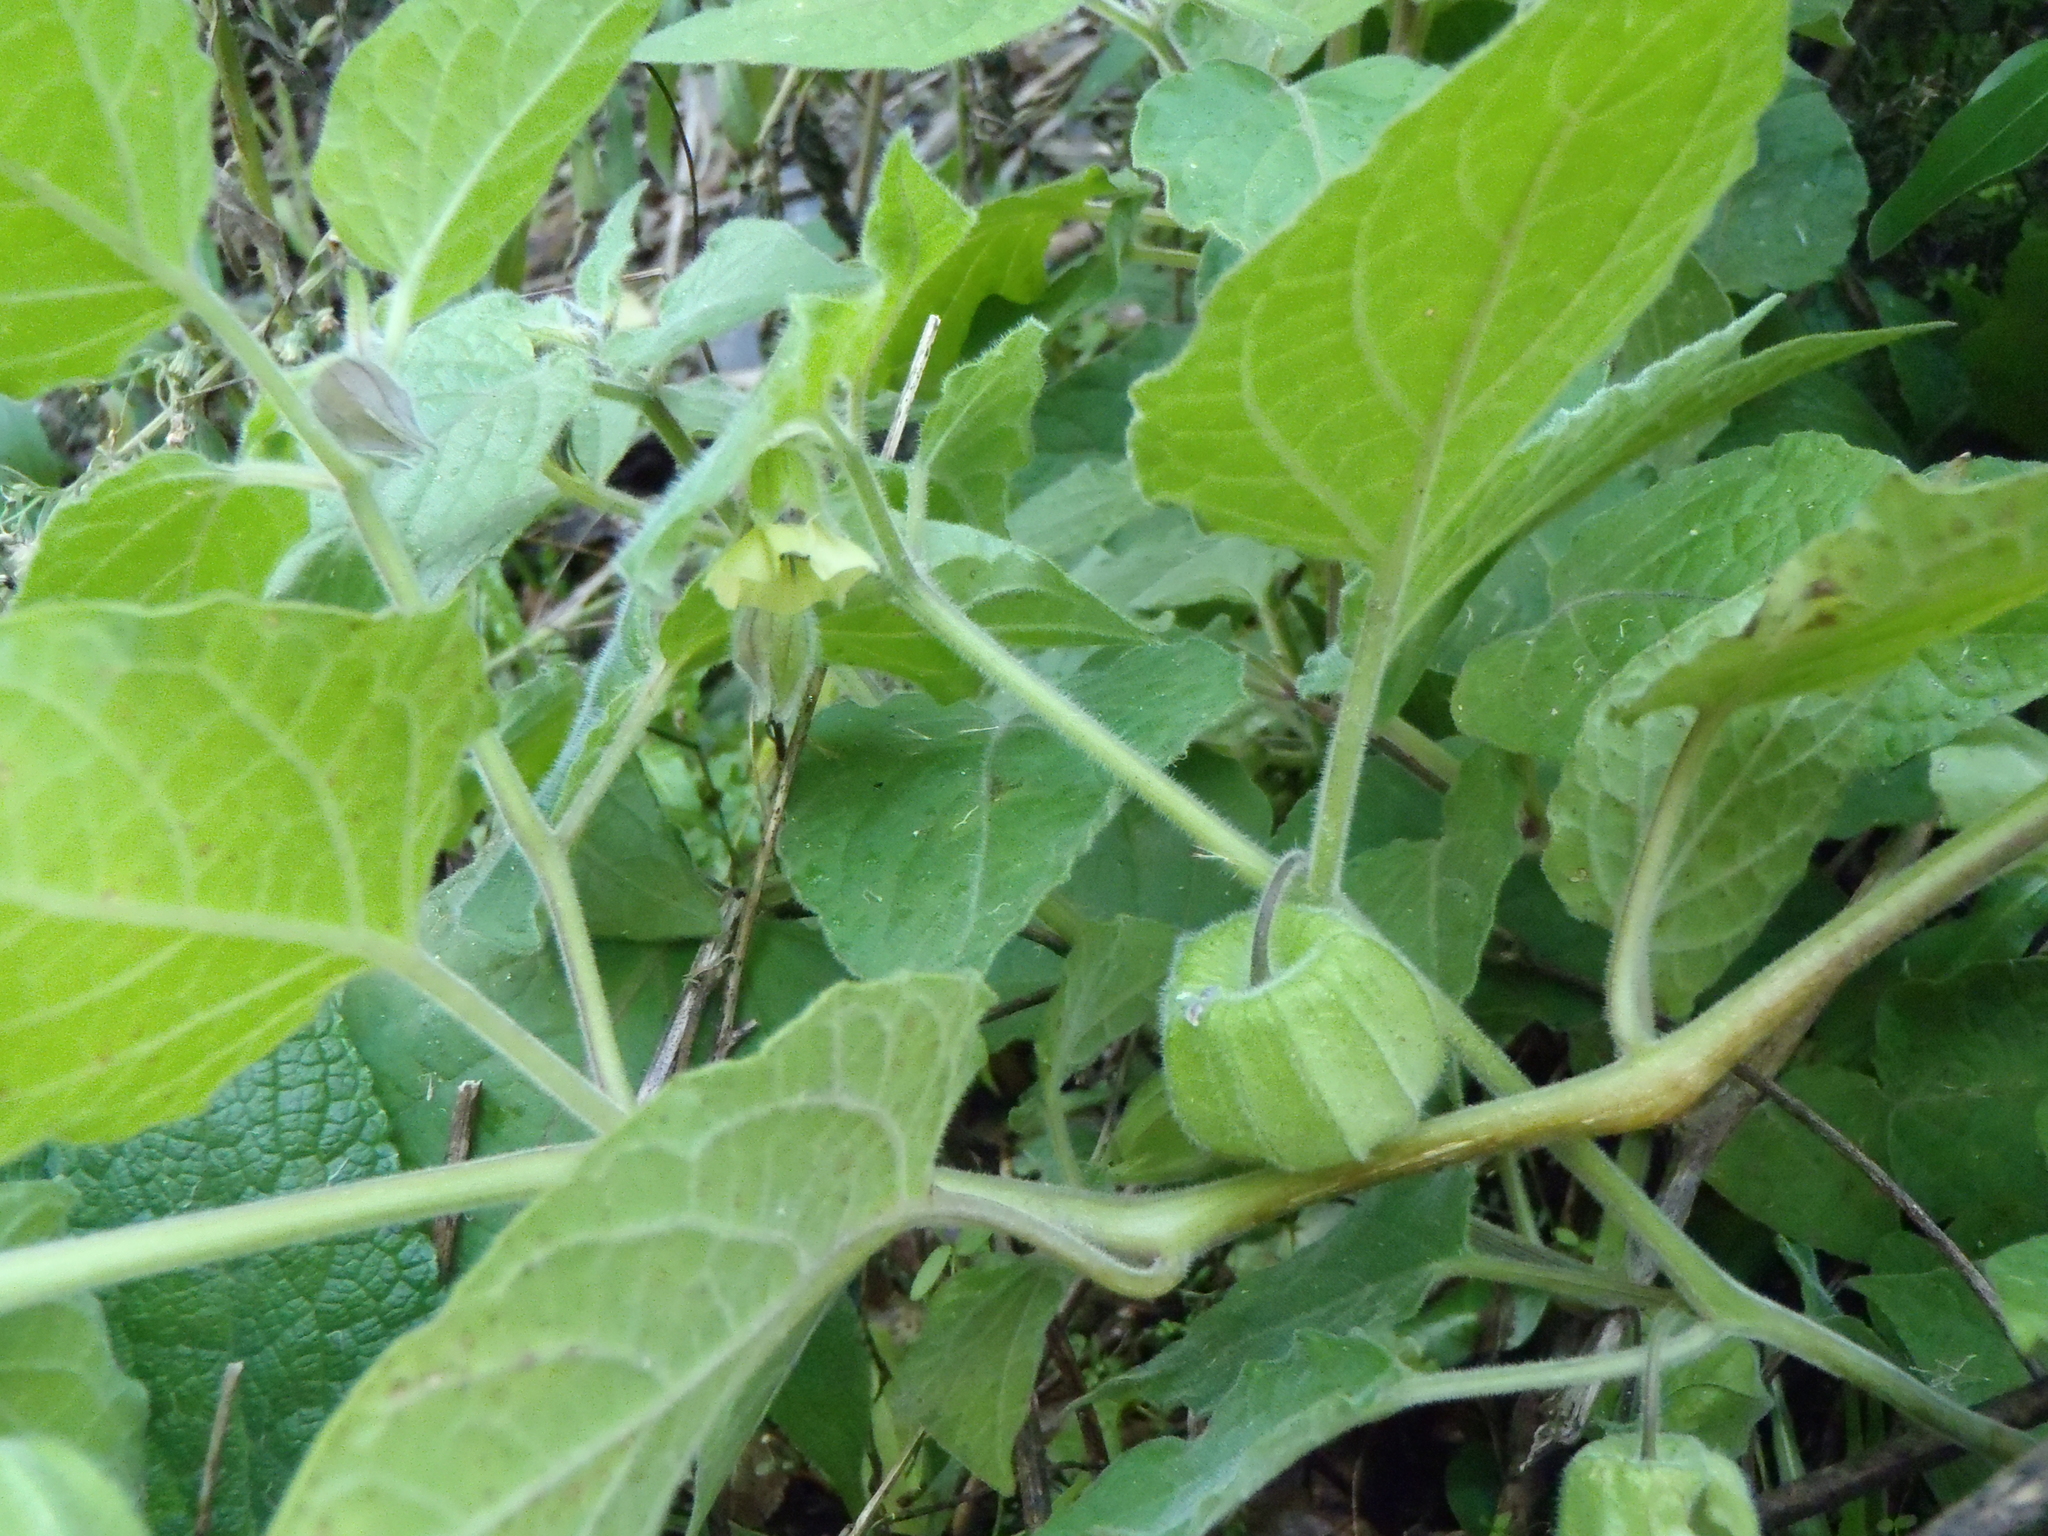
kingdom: Plantae
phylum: Tracheophyta
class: Magnoliopsida
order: Solanales
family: Solanaceae
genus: Physalis
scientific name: Physalis peruviana
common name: Cape-gooseberry
